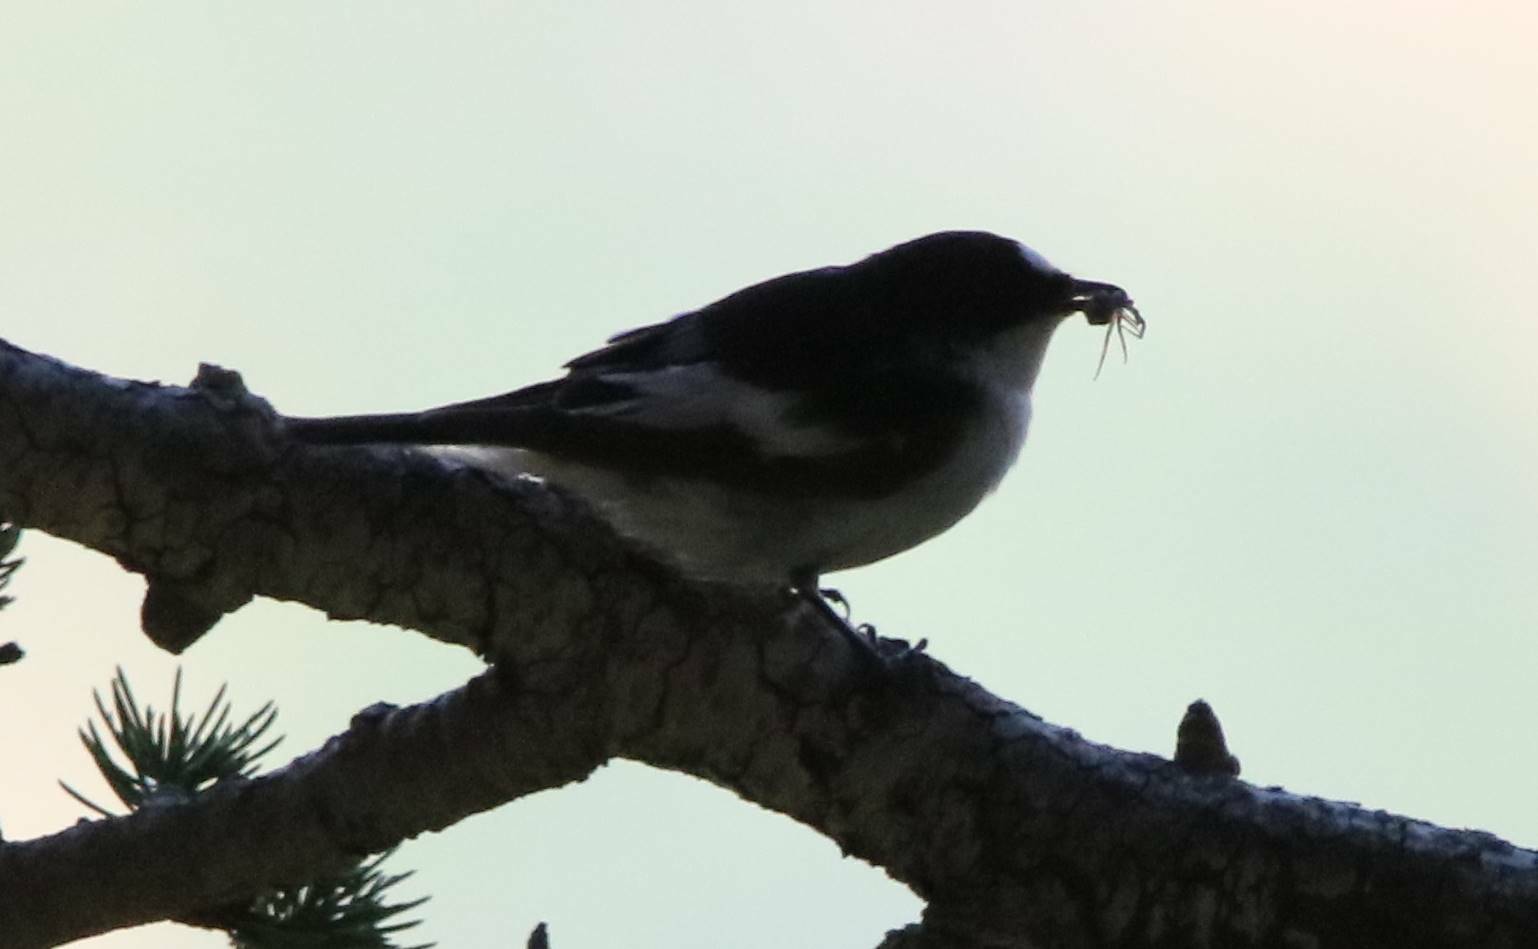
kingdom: Animalia
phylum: Chordata
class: Aves
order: Passeriformes
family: Muscicapidae
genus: Ficedula
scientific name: Ficedula speculigera
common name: Atlas pied flycatcher
